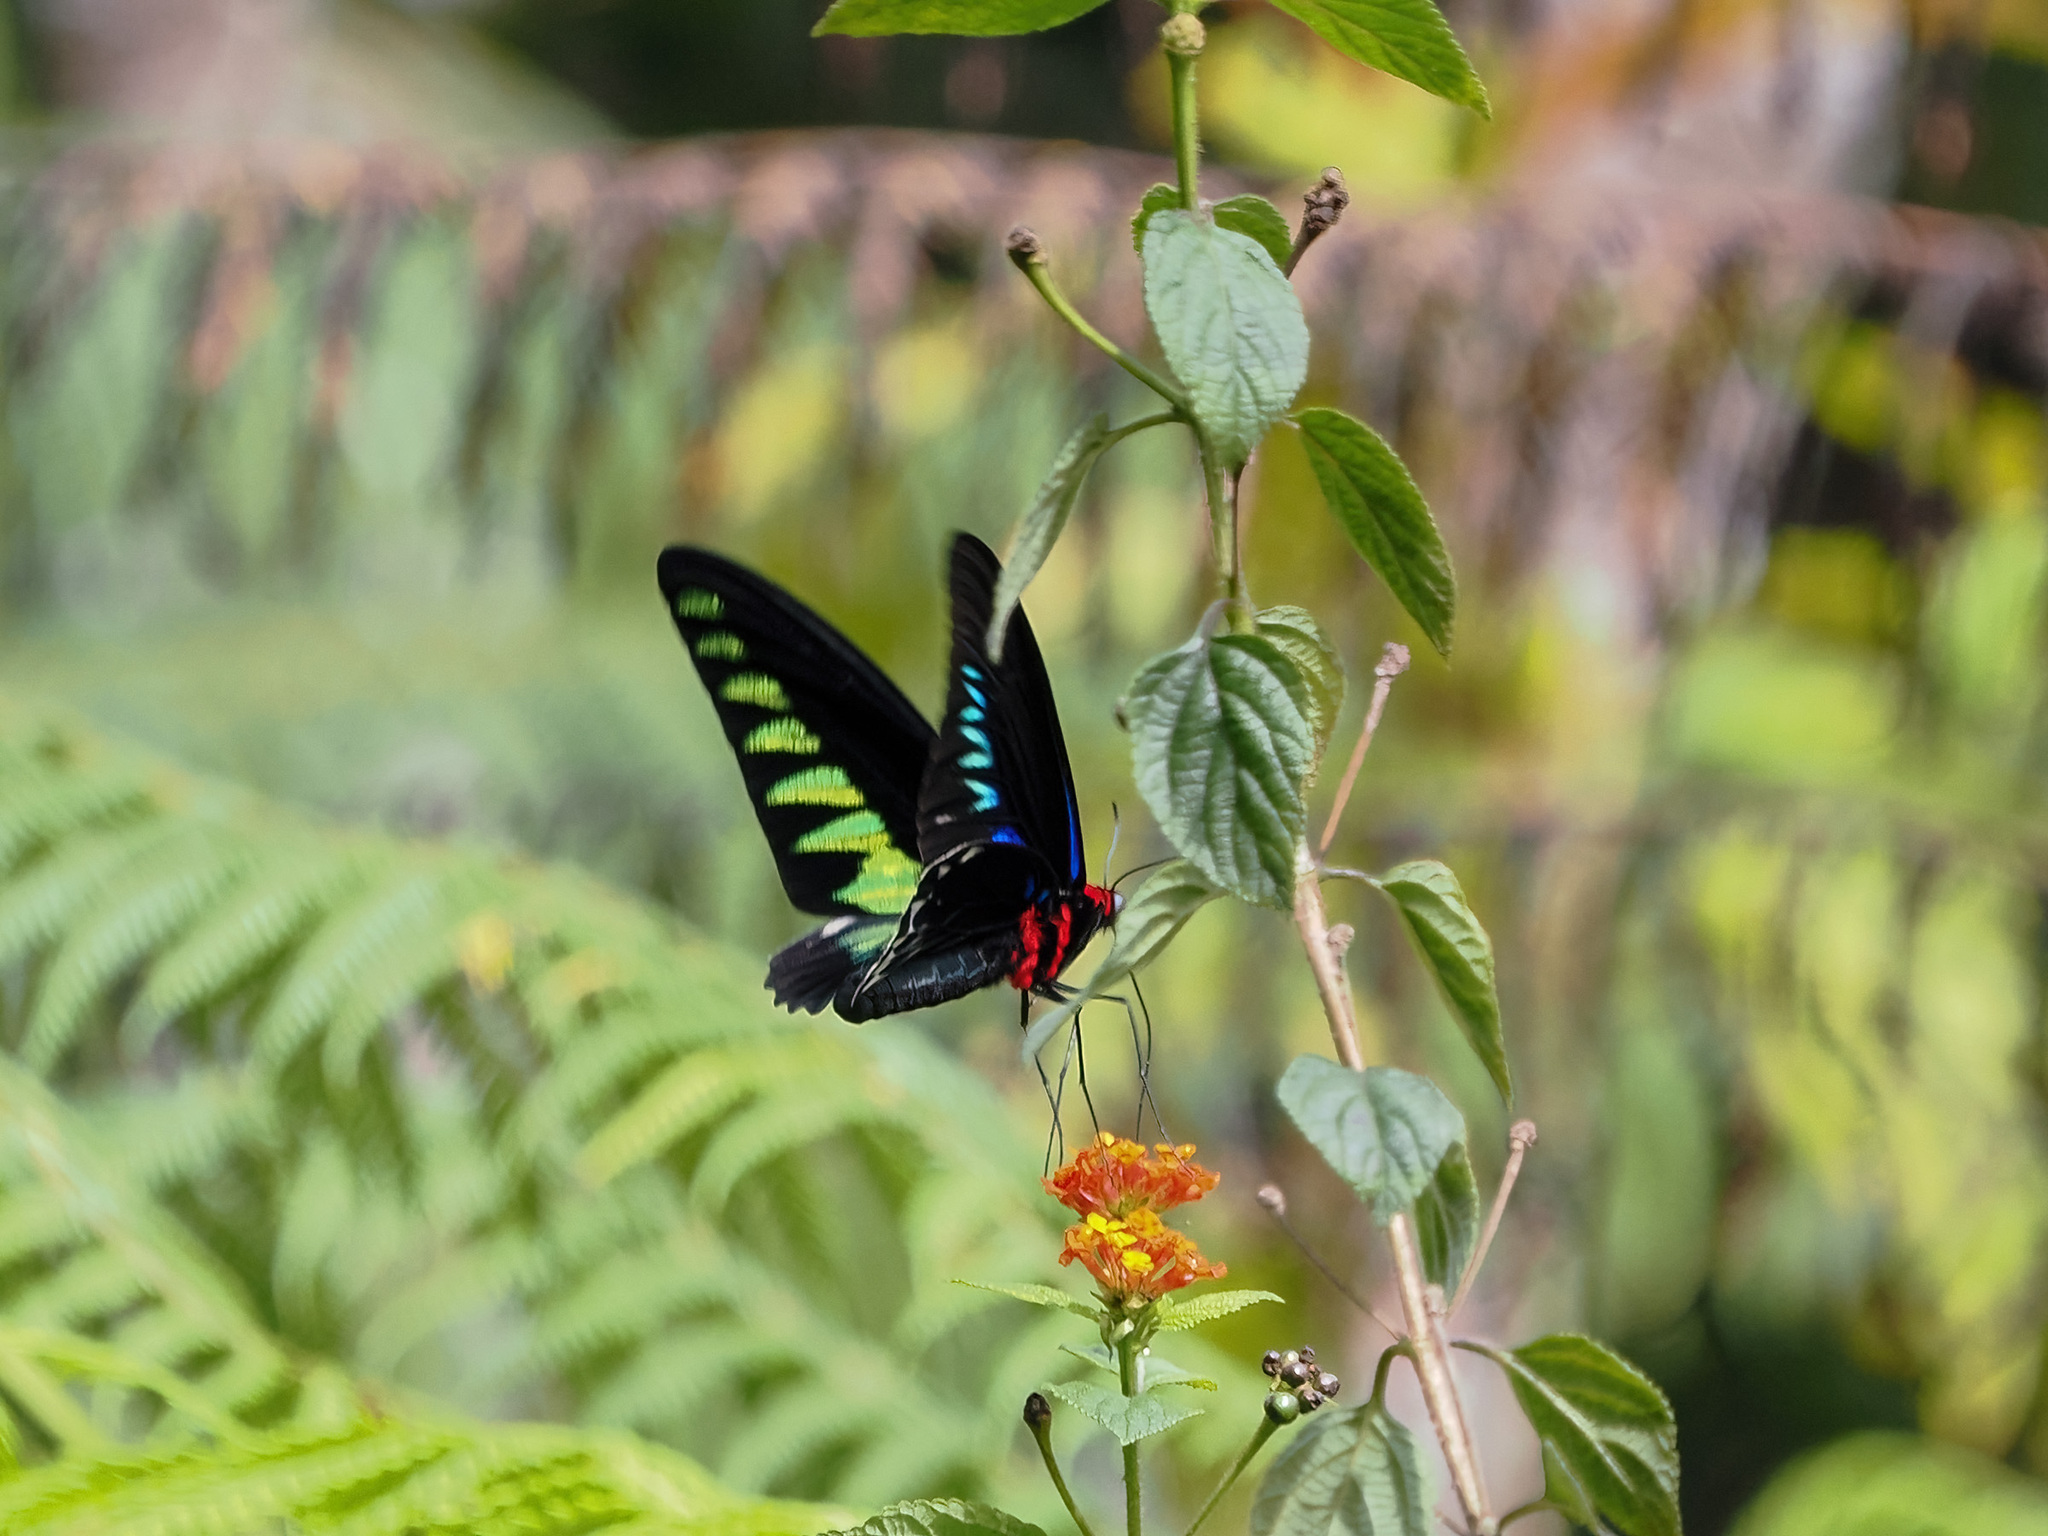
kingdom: Animalia
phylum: Arthropoda
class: Insecta
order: Lepidoptera
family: Papilionidae
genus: Trogonoptera
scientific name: Trogonoptera brookiana
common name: Raja brooke's birdwing
